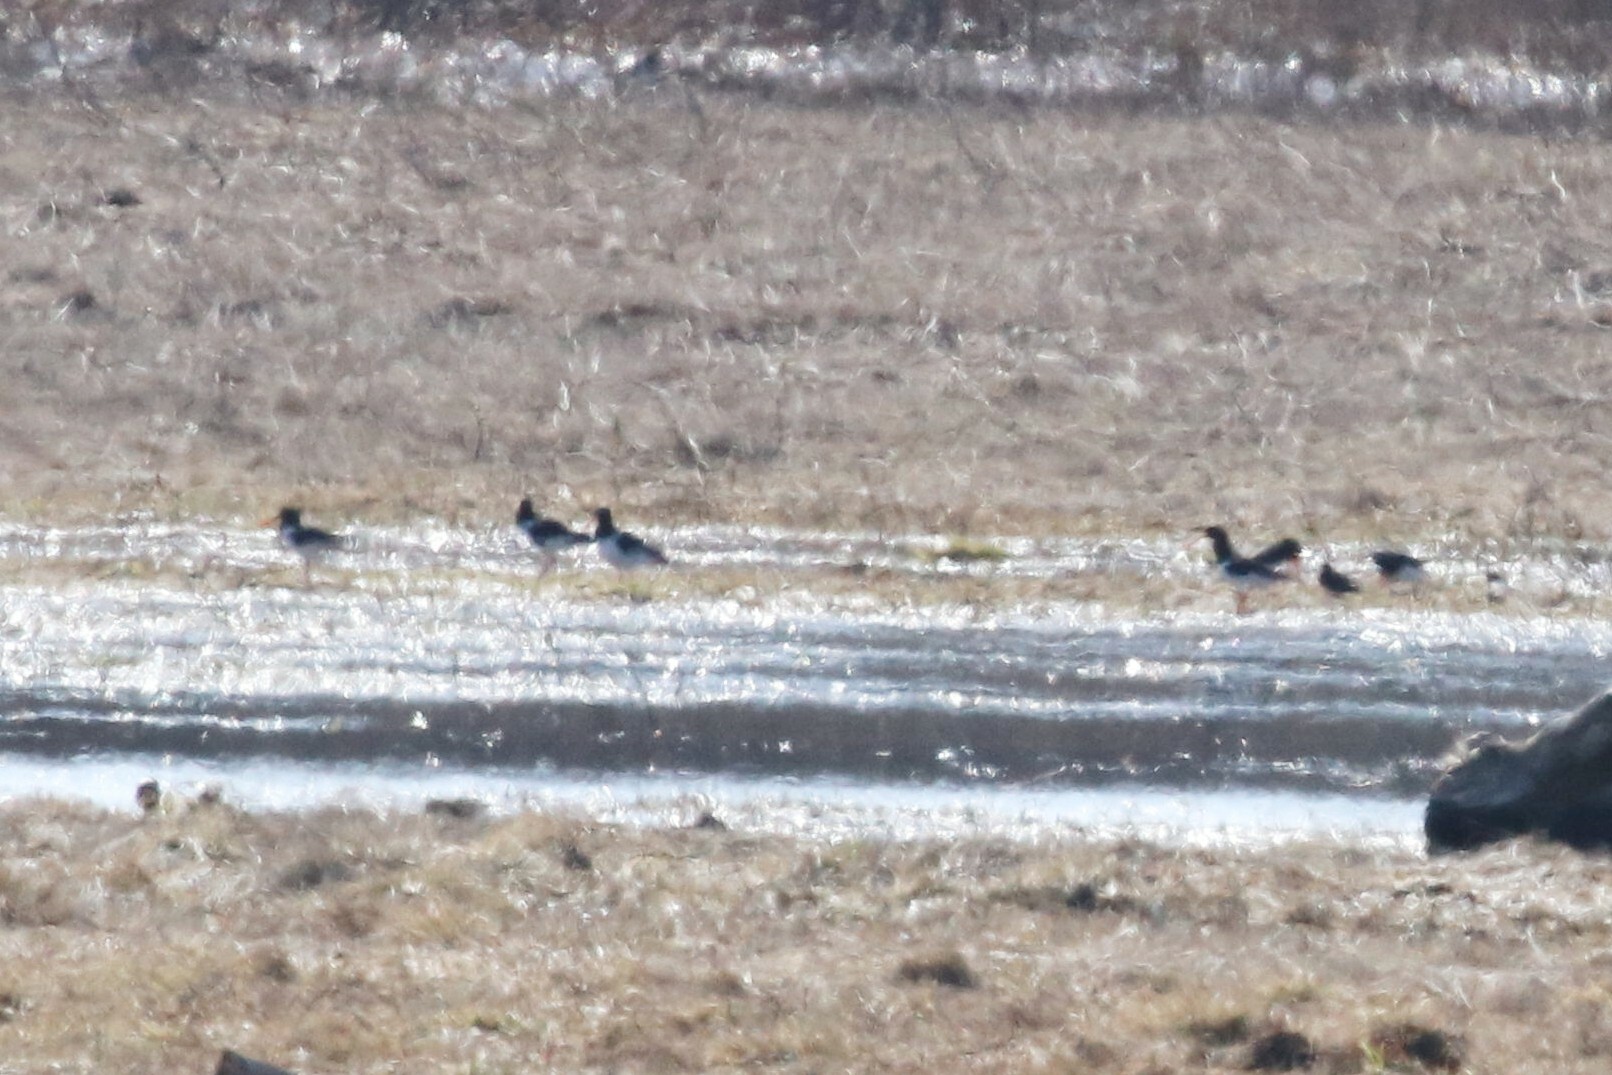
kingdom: Animalia
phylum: Chordata
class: Aves
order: Charadriiformes
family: Haematopodidae
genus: Haematopus
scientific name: Haematopus ostralegus
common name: Eurasian oystercatcher
